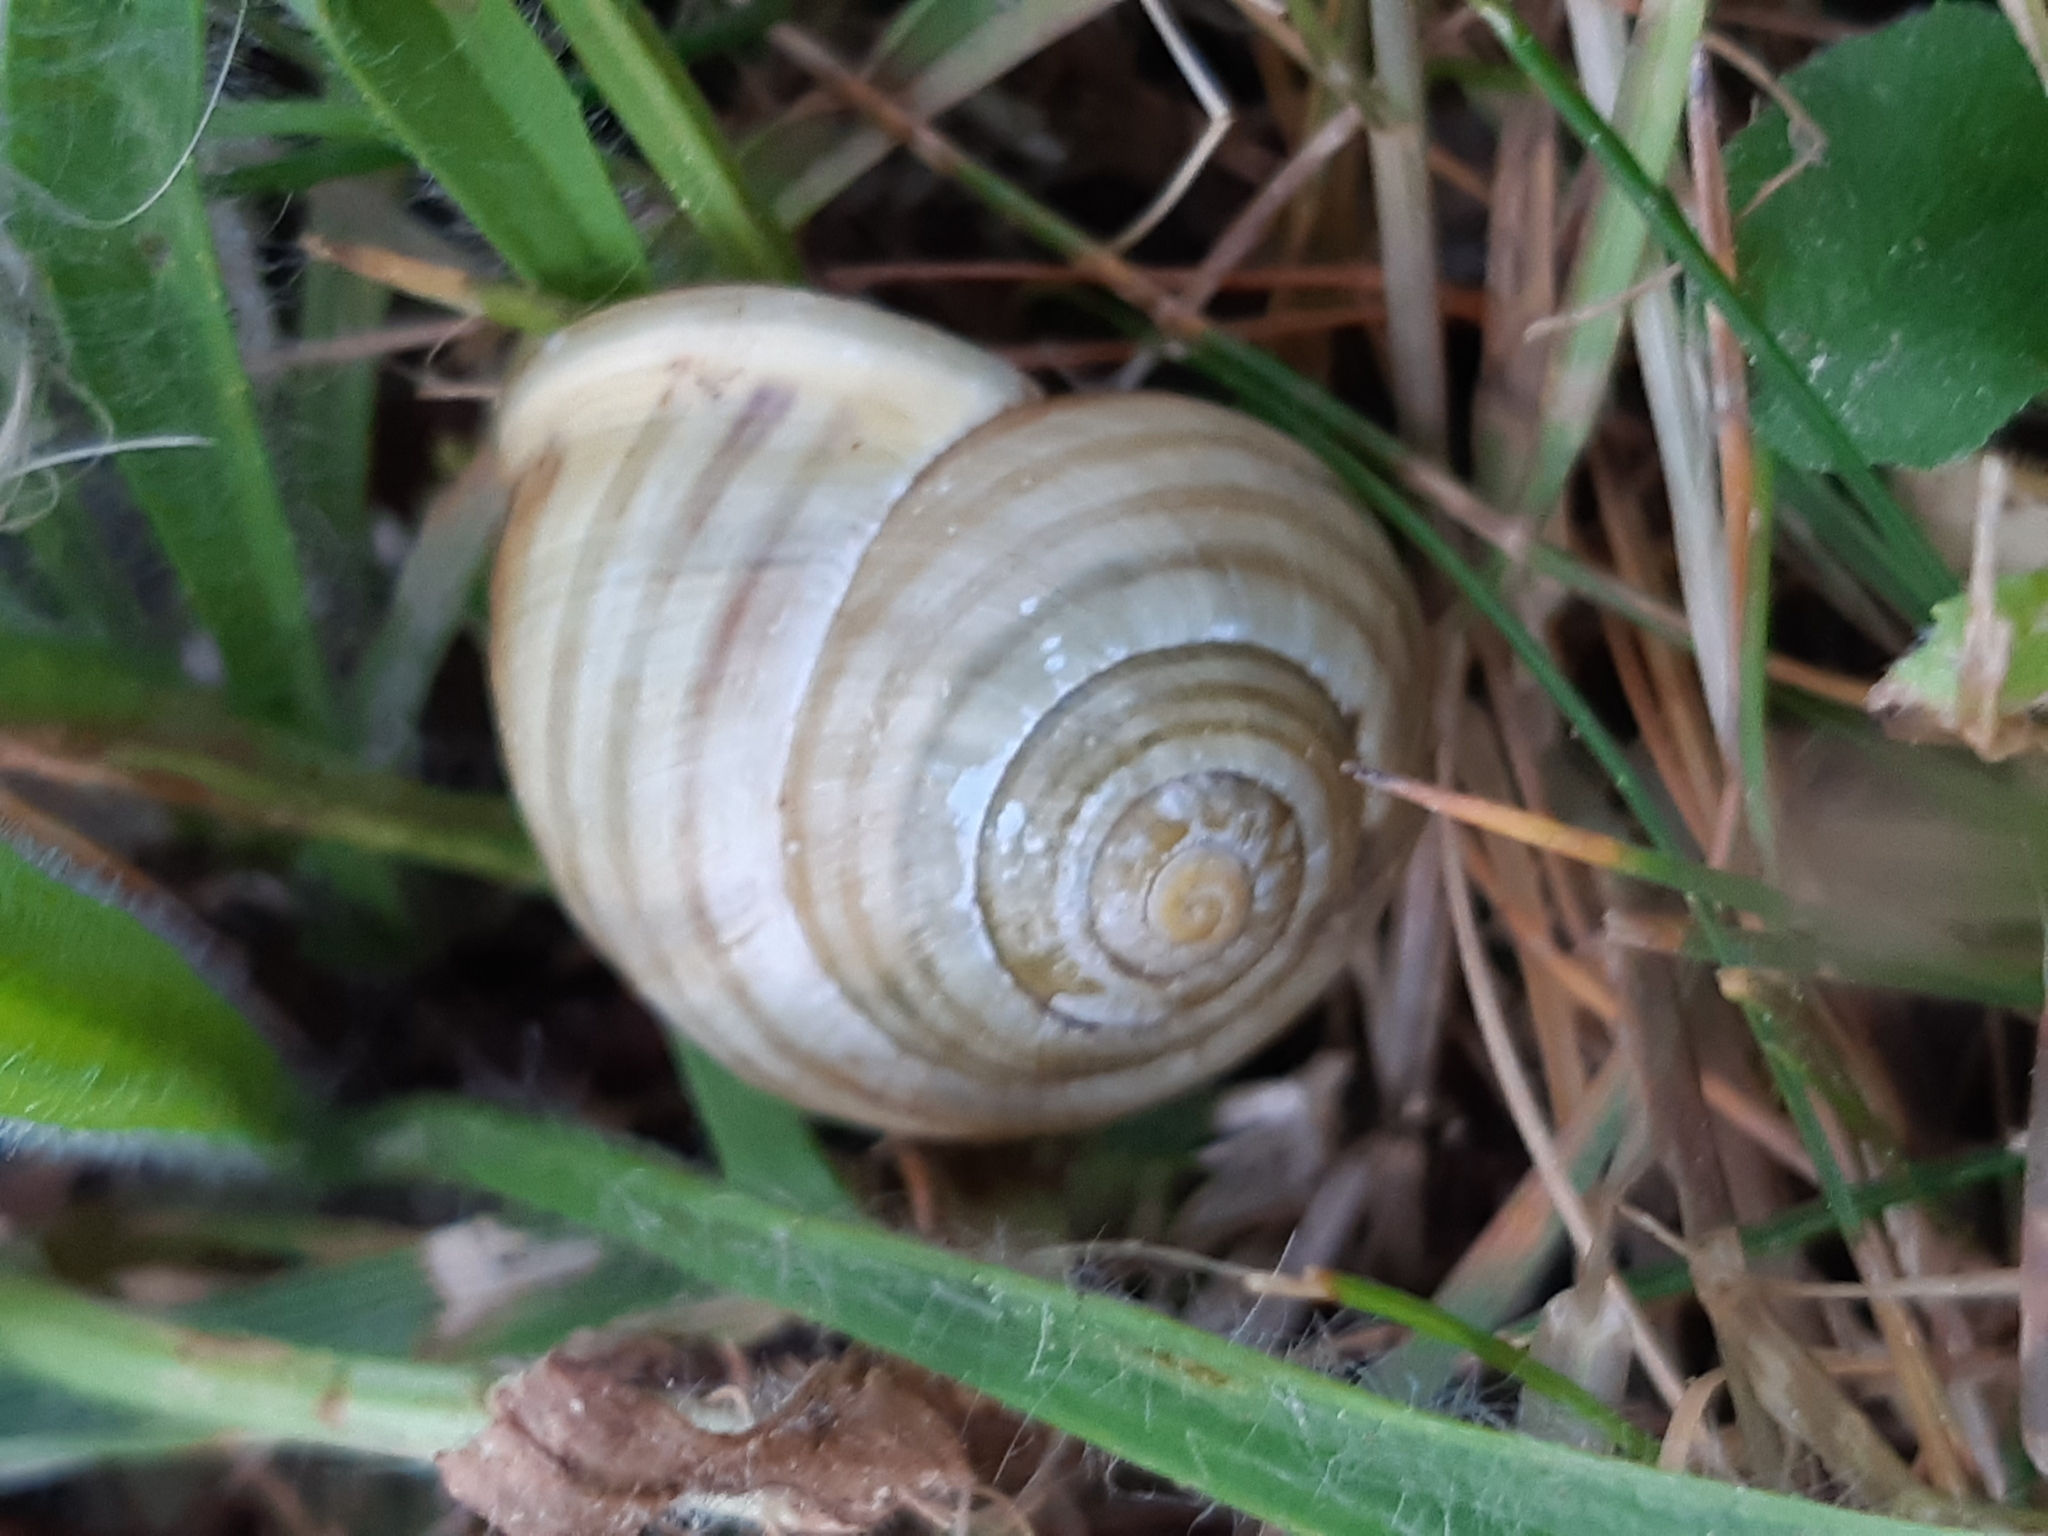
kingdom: Animalia
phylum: Mollusca
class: Gastropoda
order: Stylommatophora
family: Helicidae
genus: Cepaea
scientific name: Cepaea hortensis
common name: White-lip gardensnail
